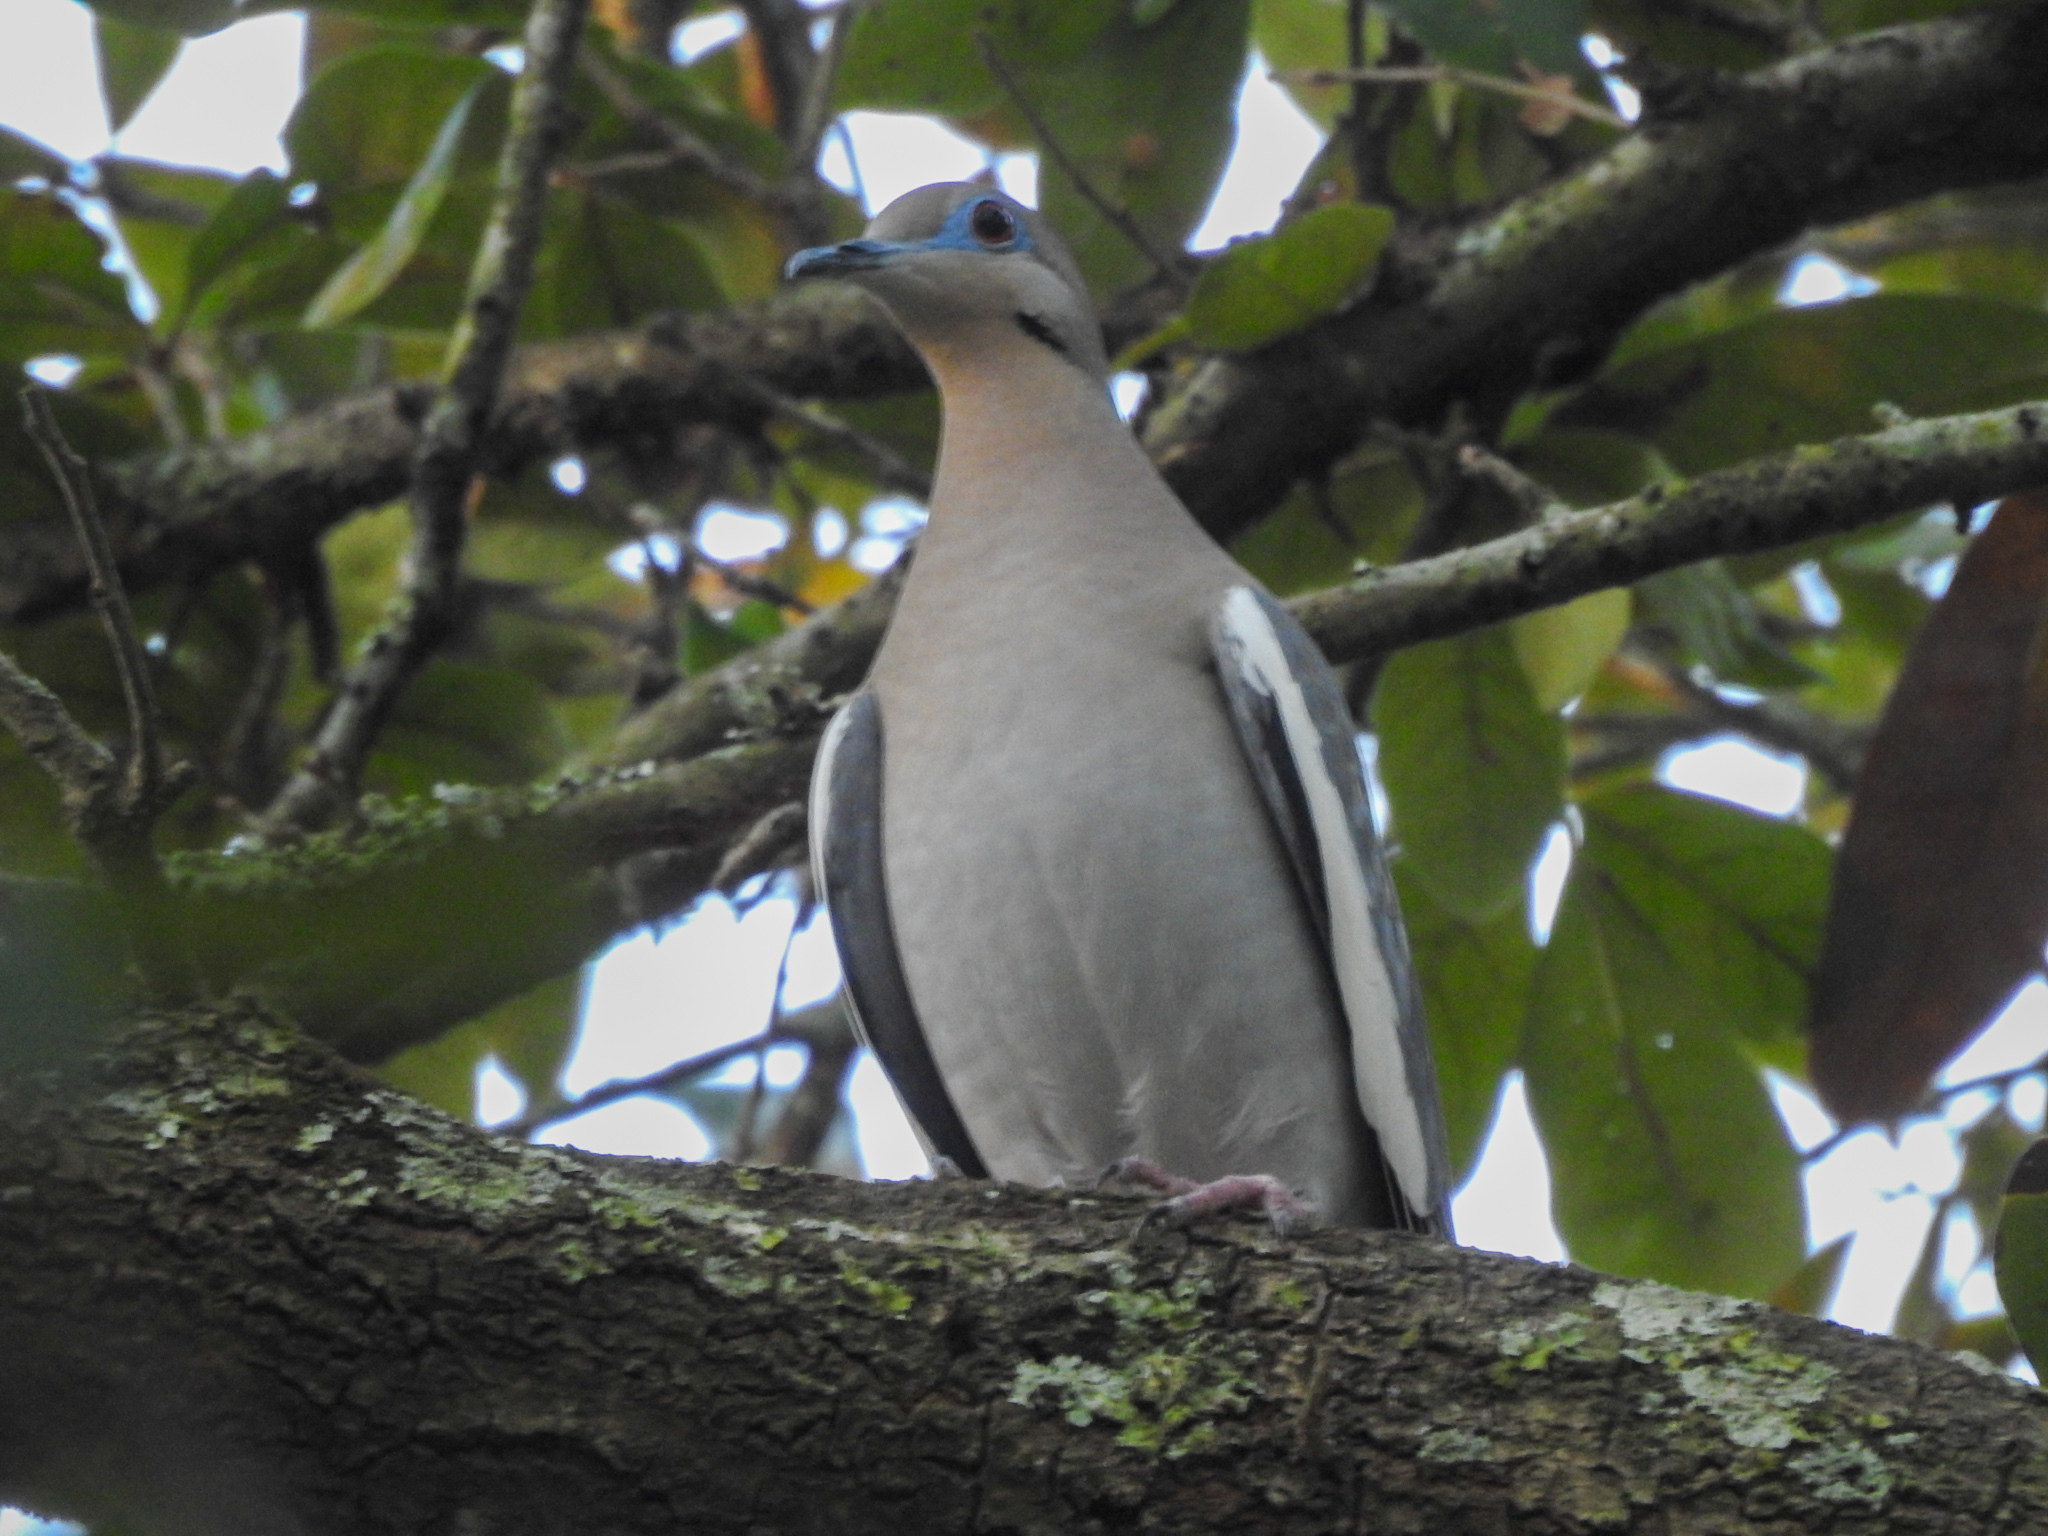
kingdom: Animalia
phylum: Chordata
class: Aves
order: Columbiformes
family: Columbidae
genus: Zenaida
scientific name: Zenaida asiatica
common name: White-winged dove
